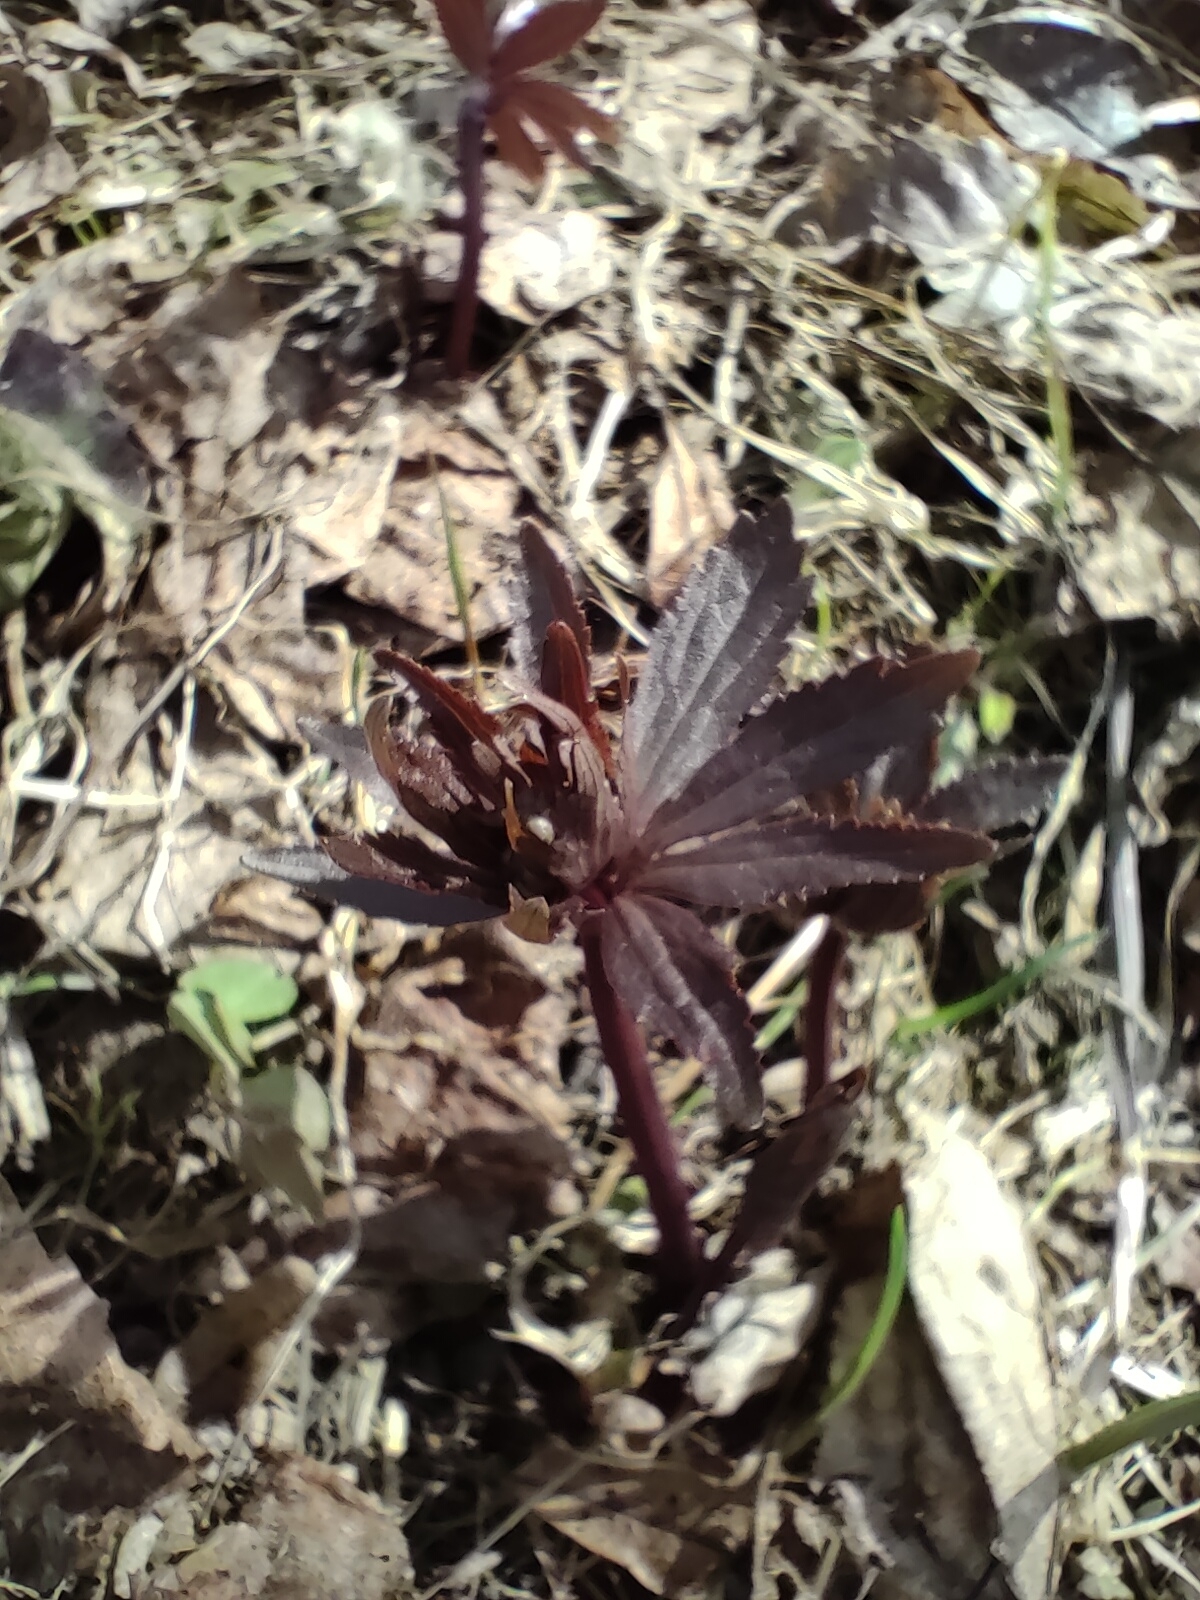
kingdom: Plantae
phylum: Tracheophyta
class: Magnoliopsida
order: Ranunculales
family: Ranunculaceae
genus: Ranunculus
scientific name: Ranunculus cassubicus
